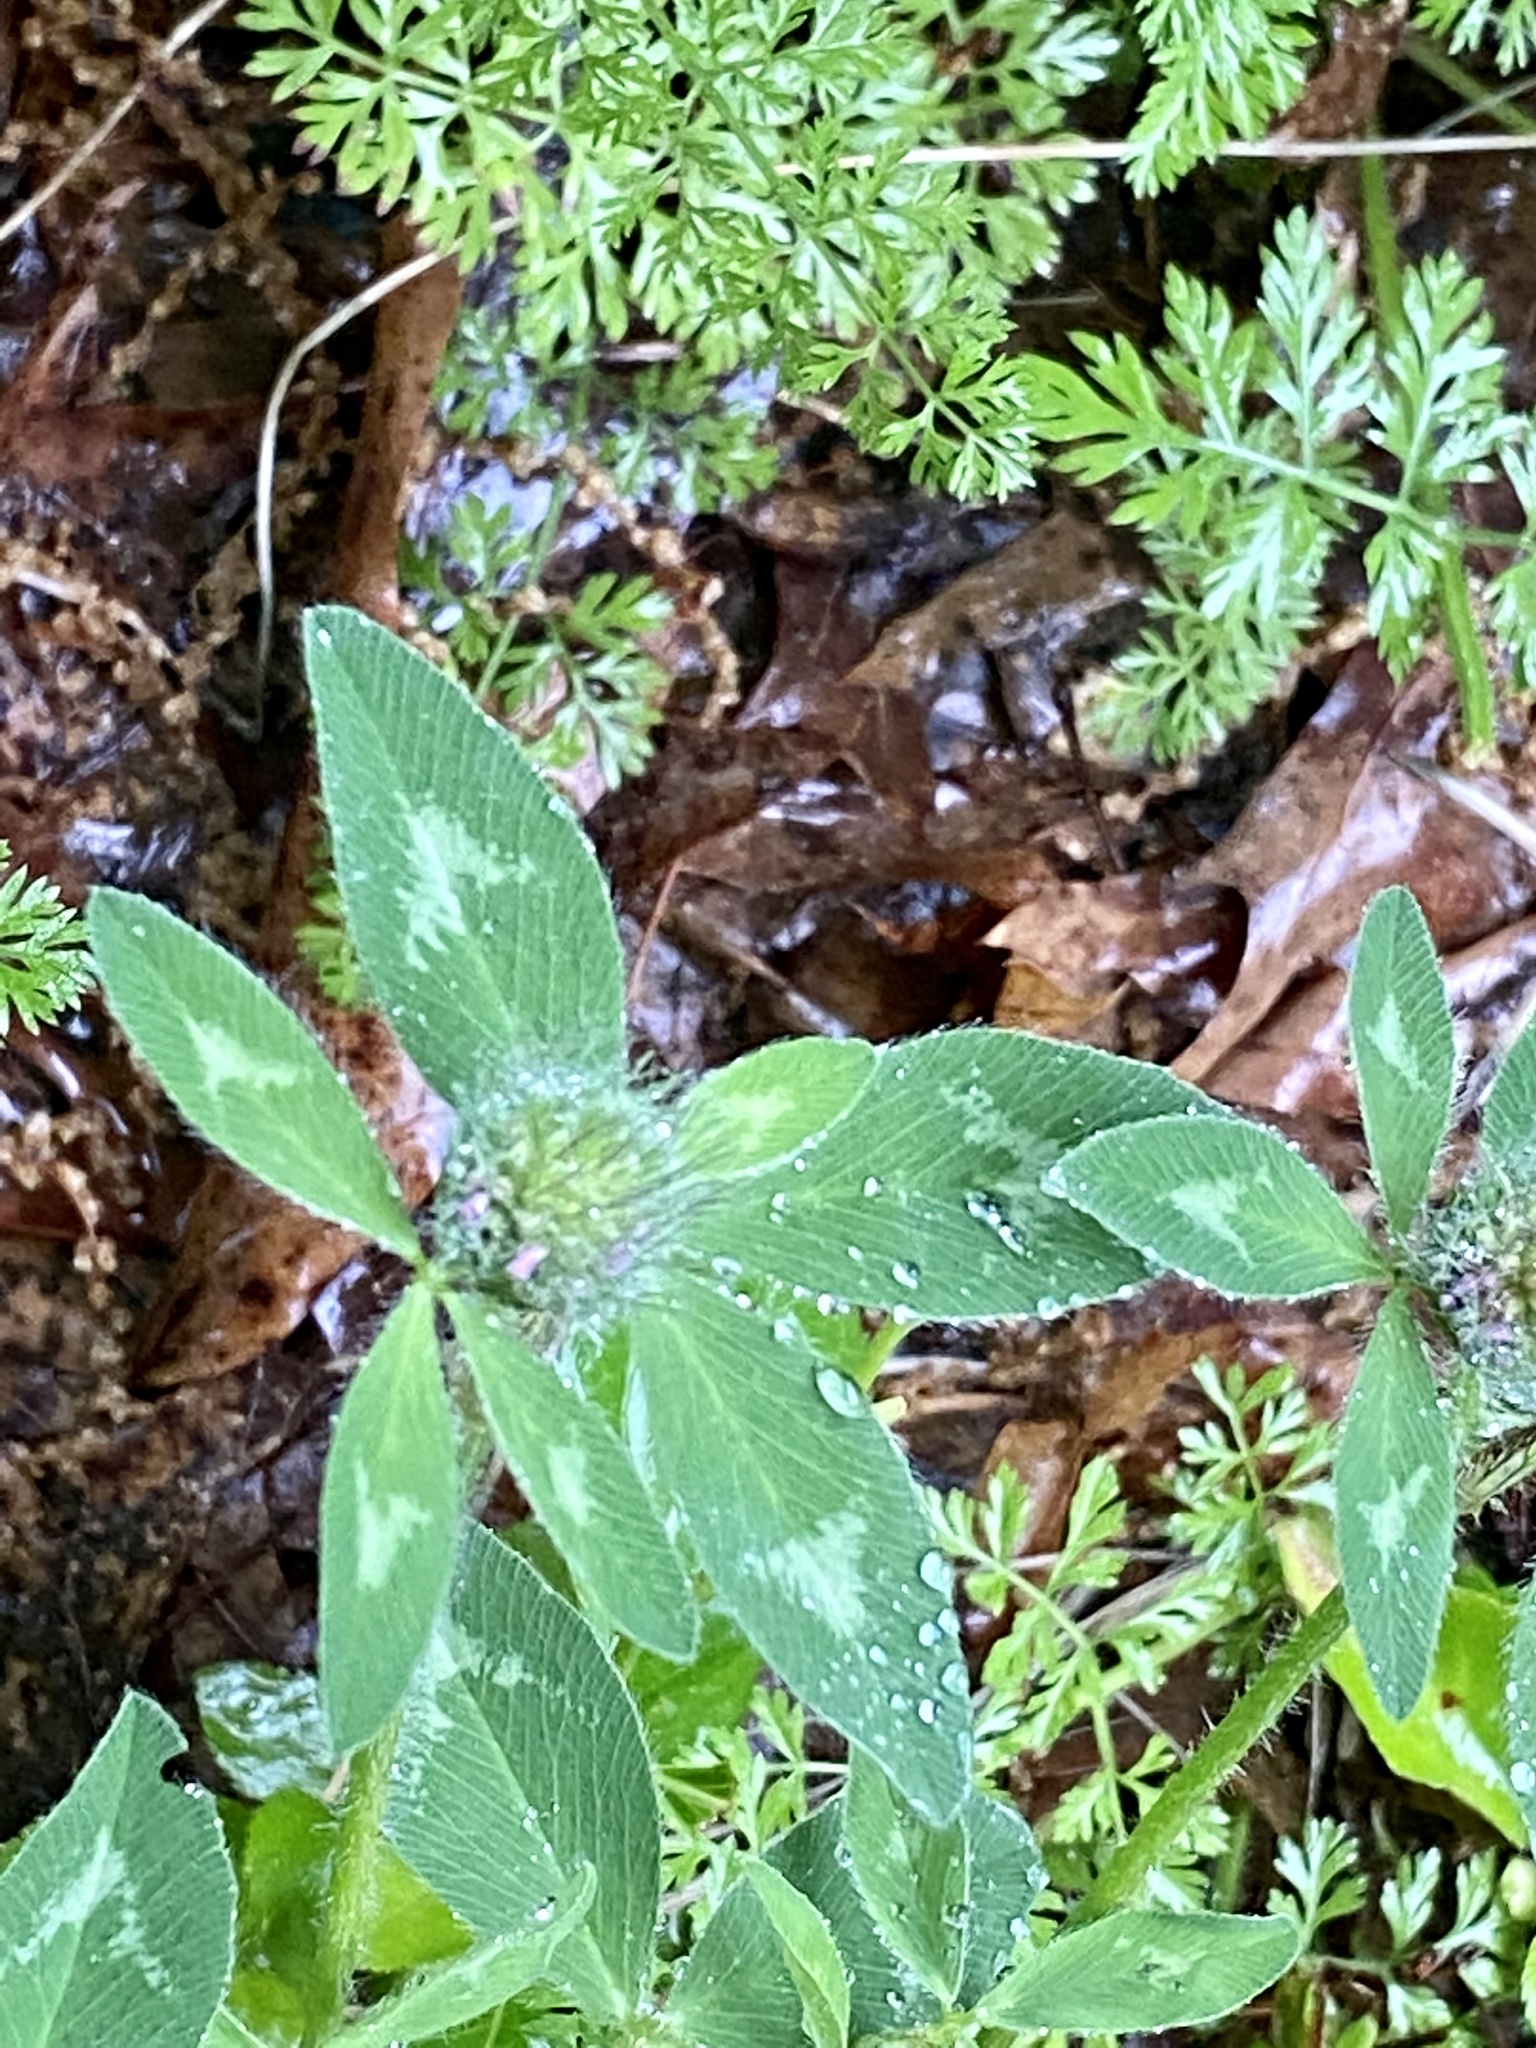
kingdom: Plantae
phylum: Tracheophyta
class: Magnoliopsida
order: Fabales
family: Fabaceae
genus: Trifolium
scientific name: Trifolium pratense
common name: Red clover
